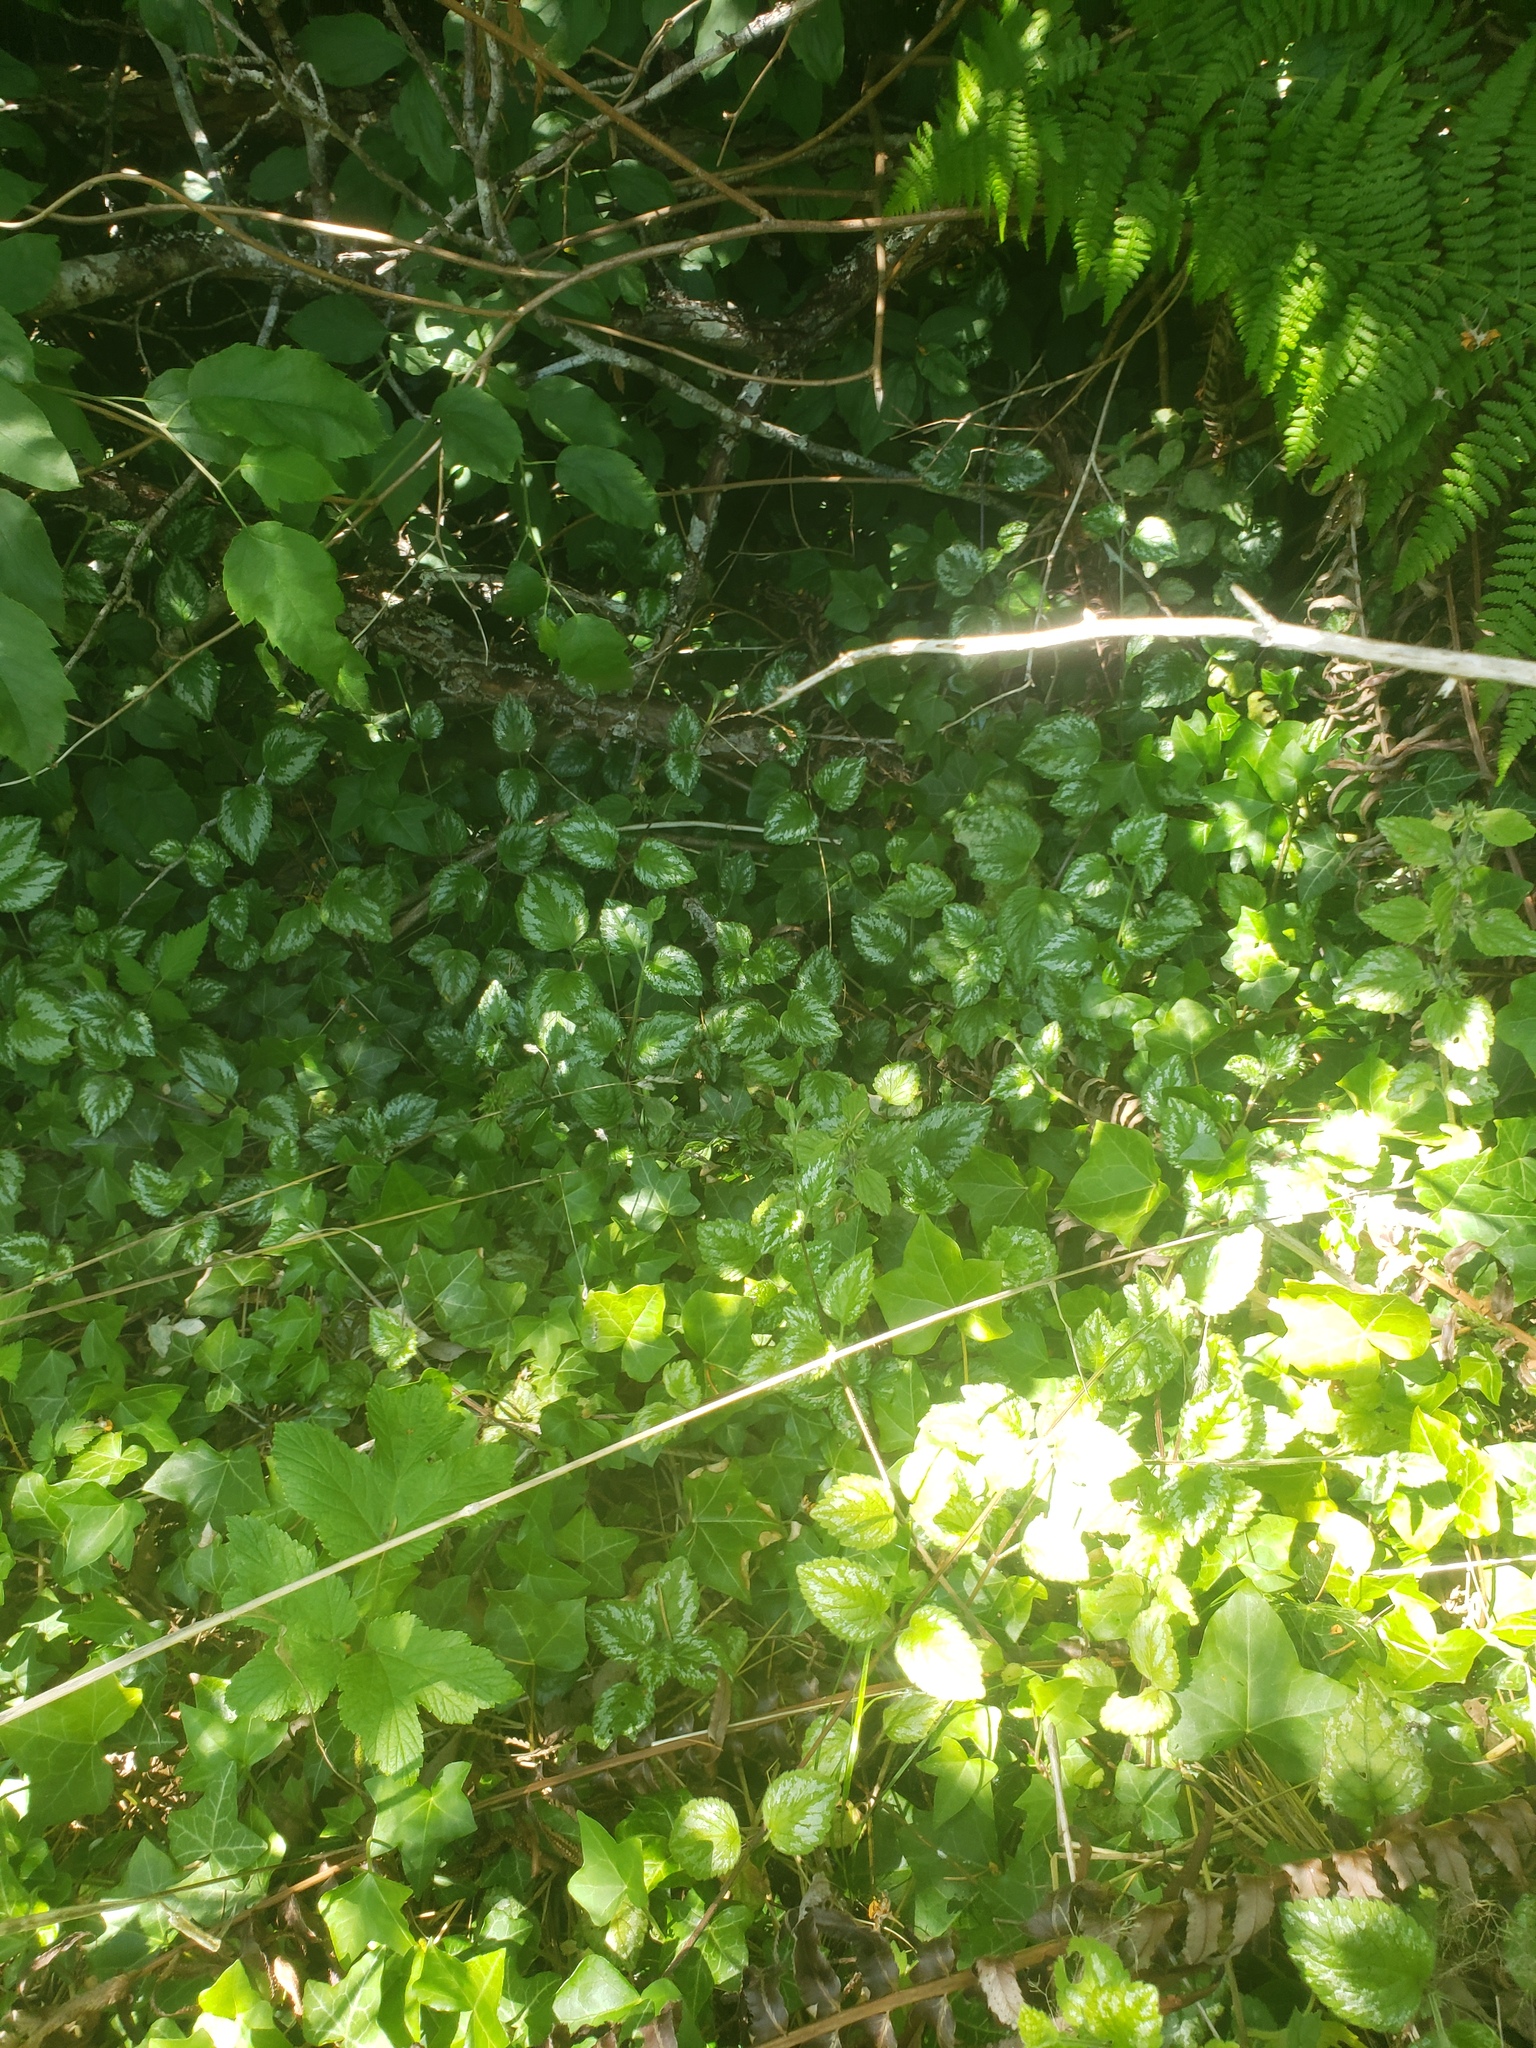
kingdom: Plantae
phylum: Tracheophyta
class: Magnoliopsida
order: Lamiales
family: Lamiaceae
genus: Lamium
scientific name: Lamium galeobdolon
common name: Yellow archangel
